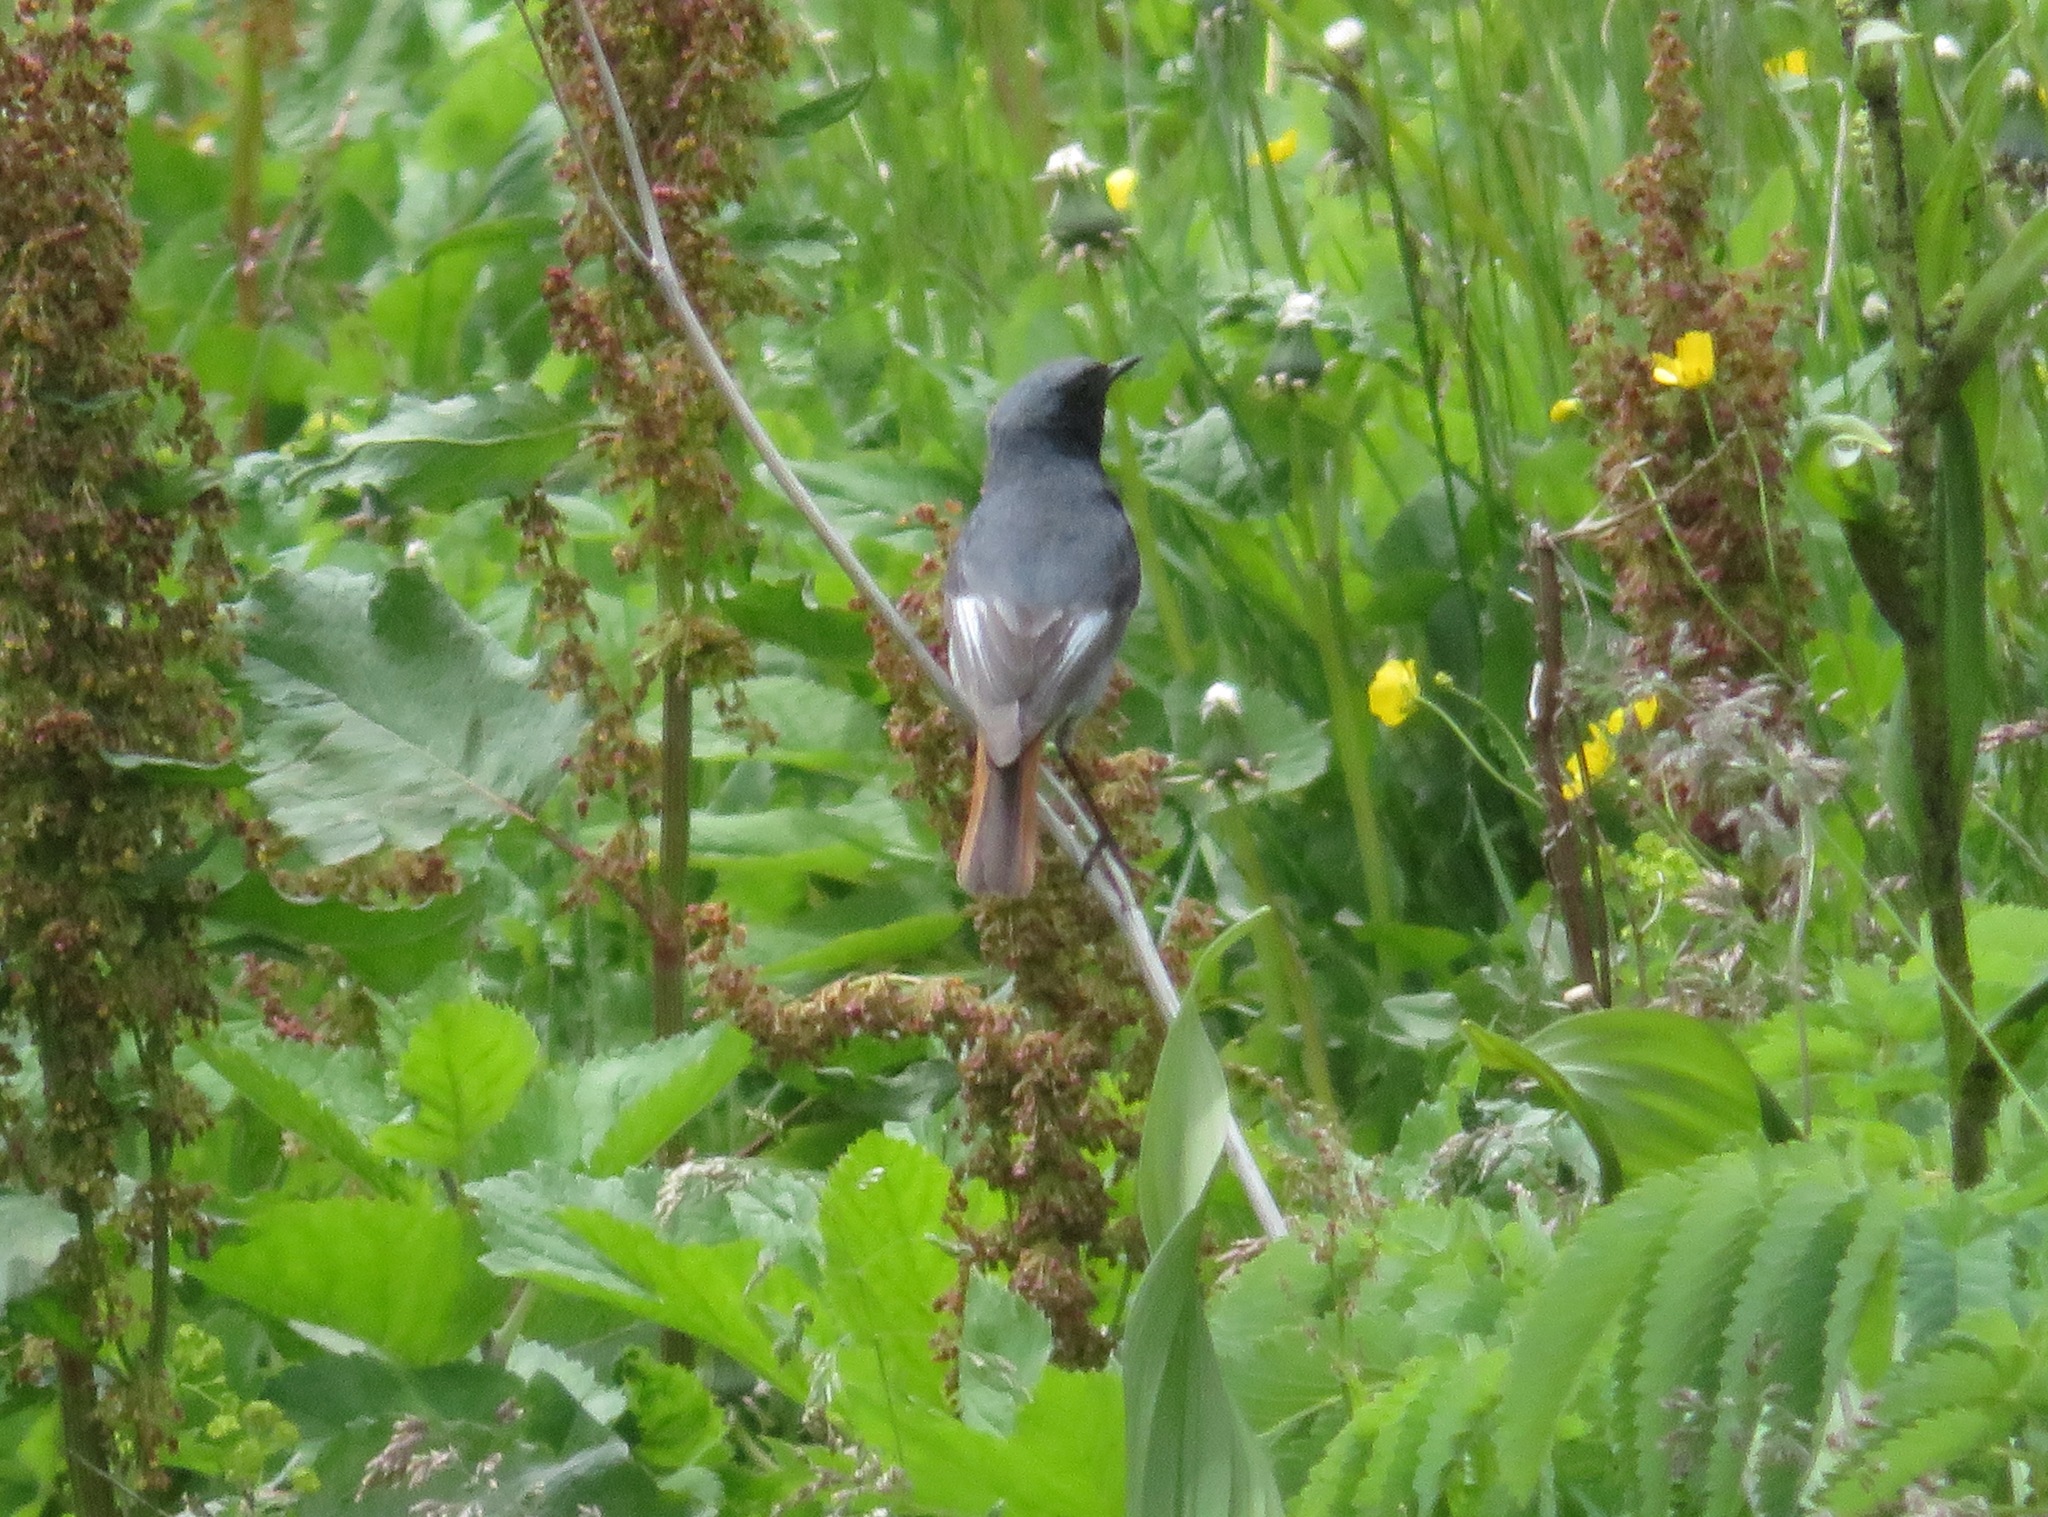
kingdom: Animalia
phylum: Chordata
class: Aves
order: Passeriformes
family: Muscicapidae
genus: Phoenicurus
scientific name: Phoenicurus ochruros
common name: Black redstart
